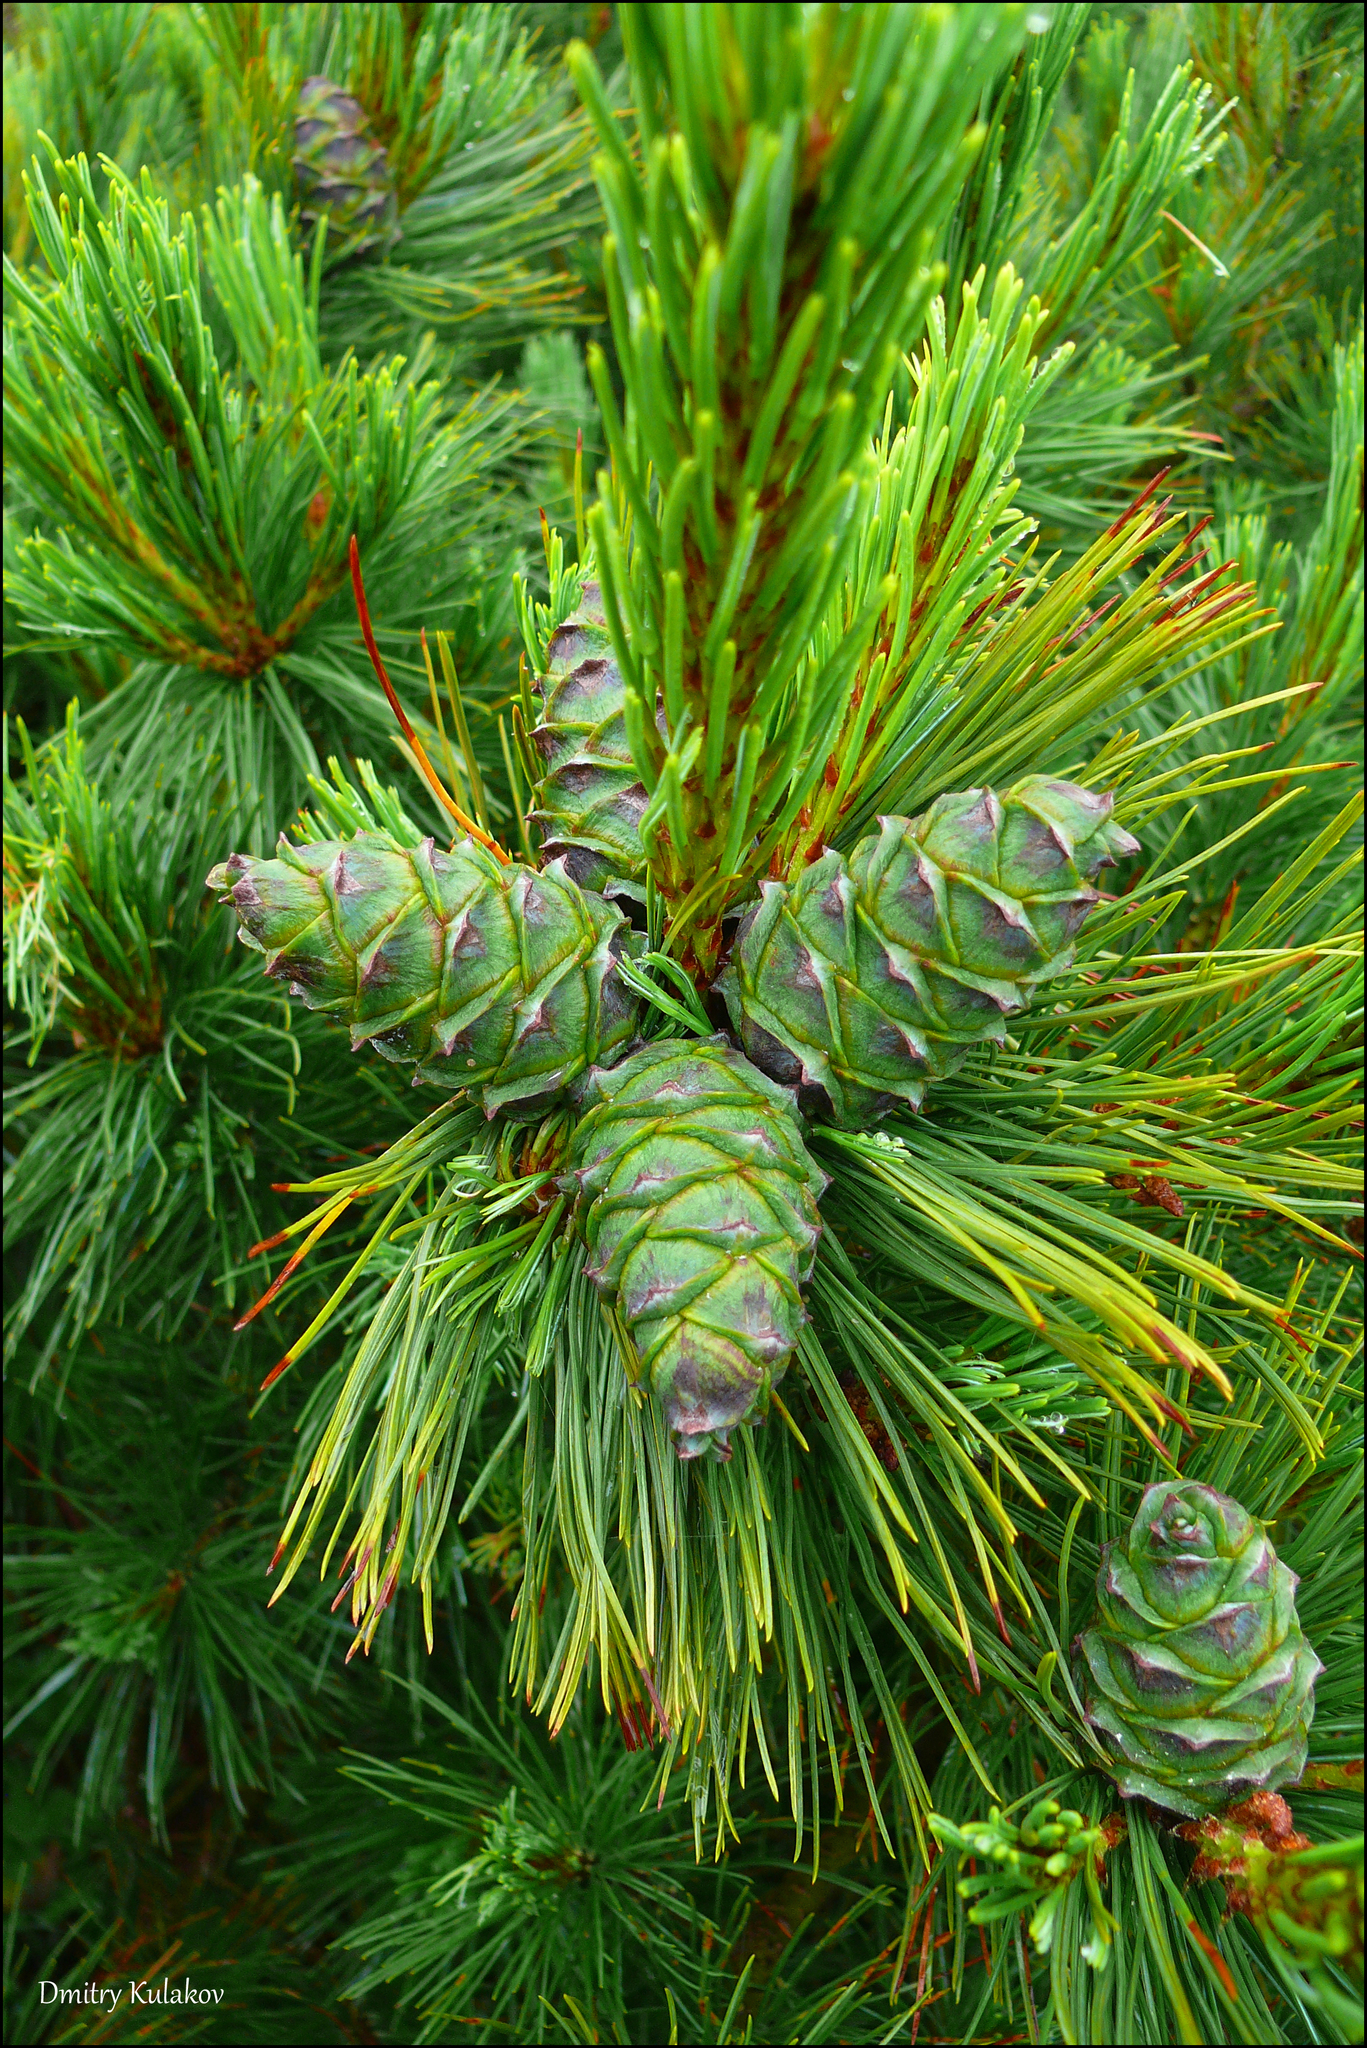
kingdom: Plantae
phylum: Tracheophyta
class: Pinopsida
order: Pinales
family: Pinaceae
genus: Pinus
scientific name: Pinus pumila
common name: Dwarf siberian pine
